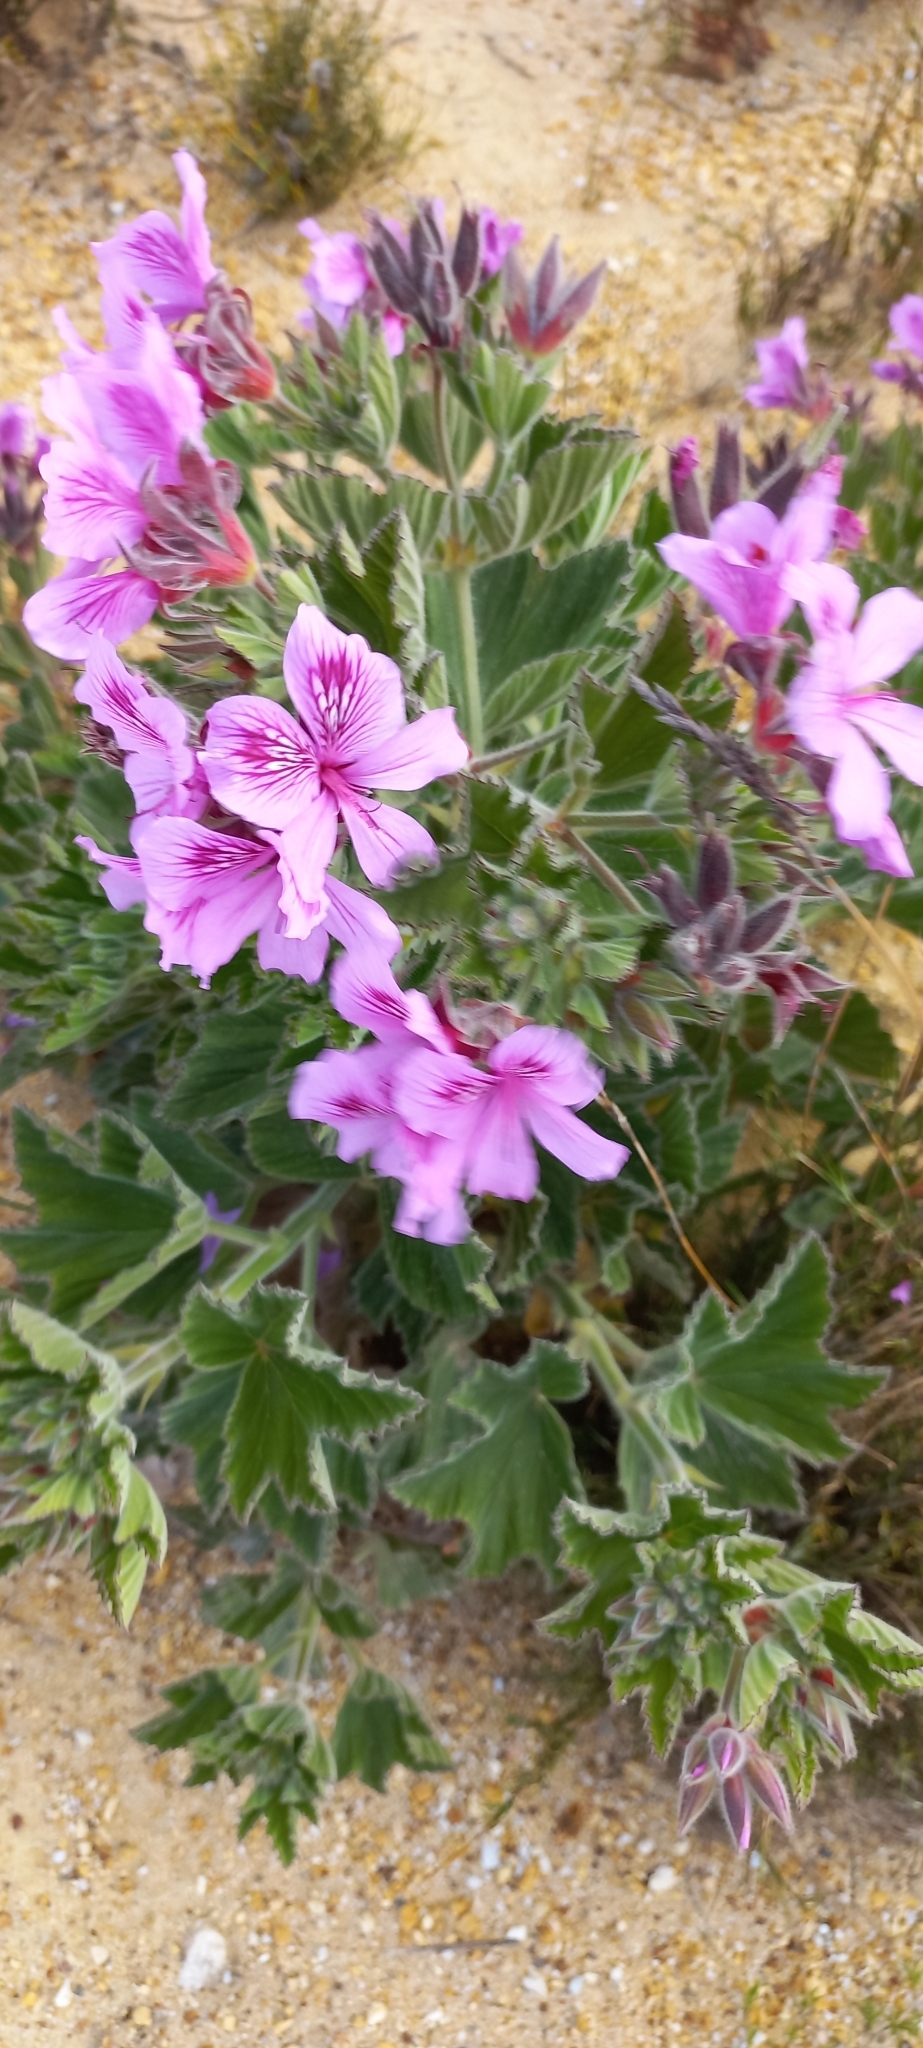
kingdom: Plantae
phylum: Tracheophyta
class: Magnoliopsida
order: Geraniales
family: Geraniaceae
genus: Pelargonium
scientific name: Pelargonium cucullatum
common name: Tree pelargonium
